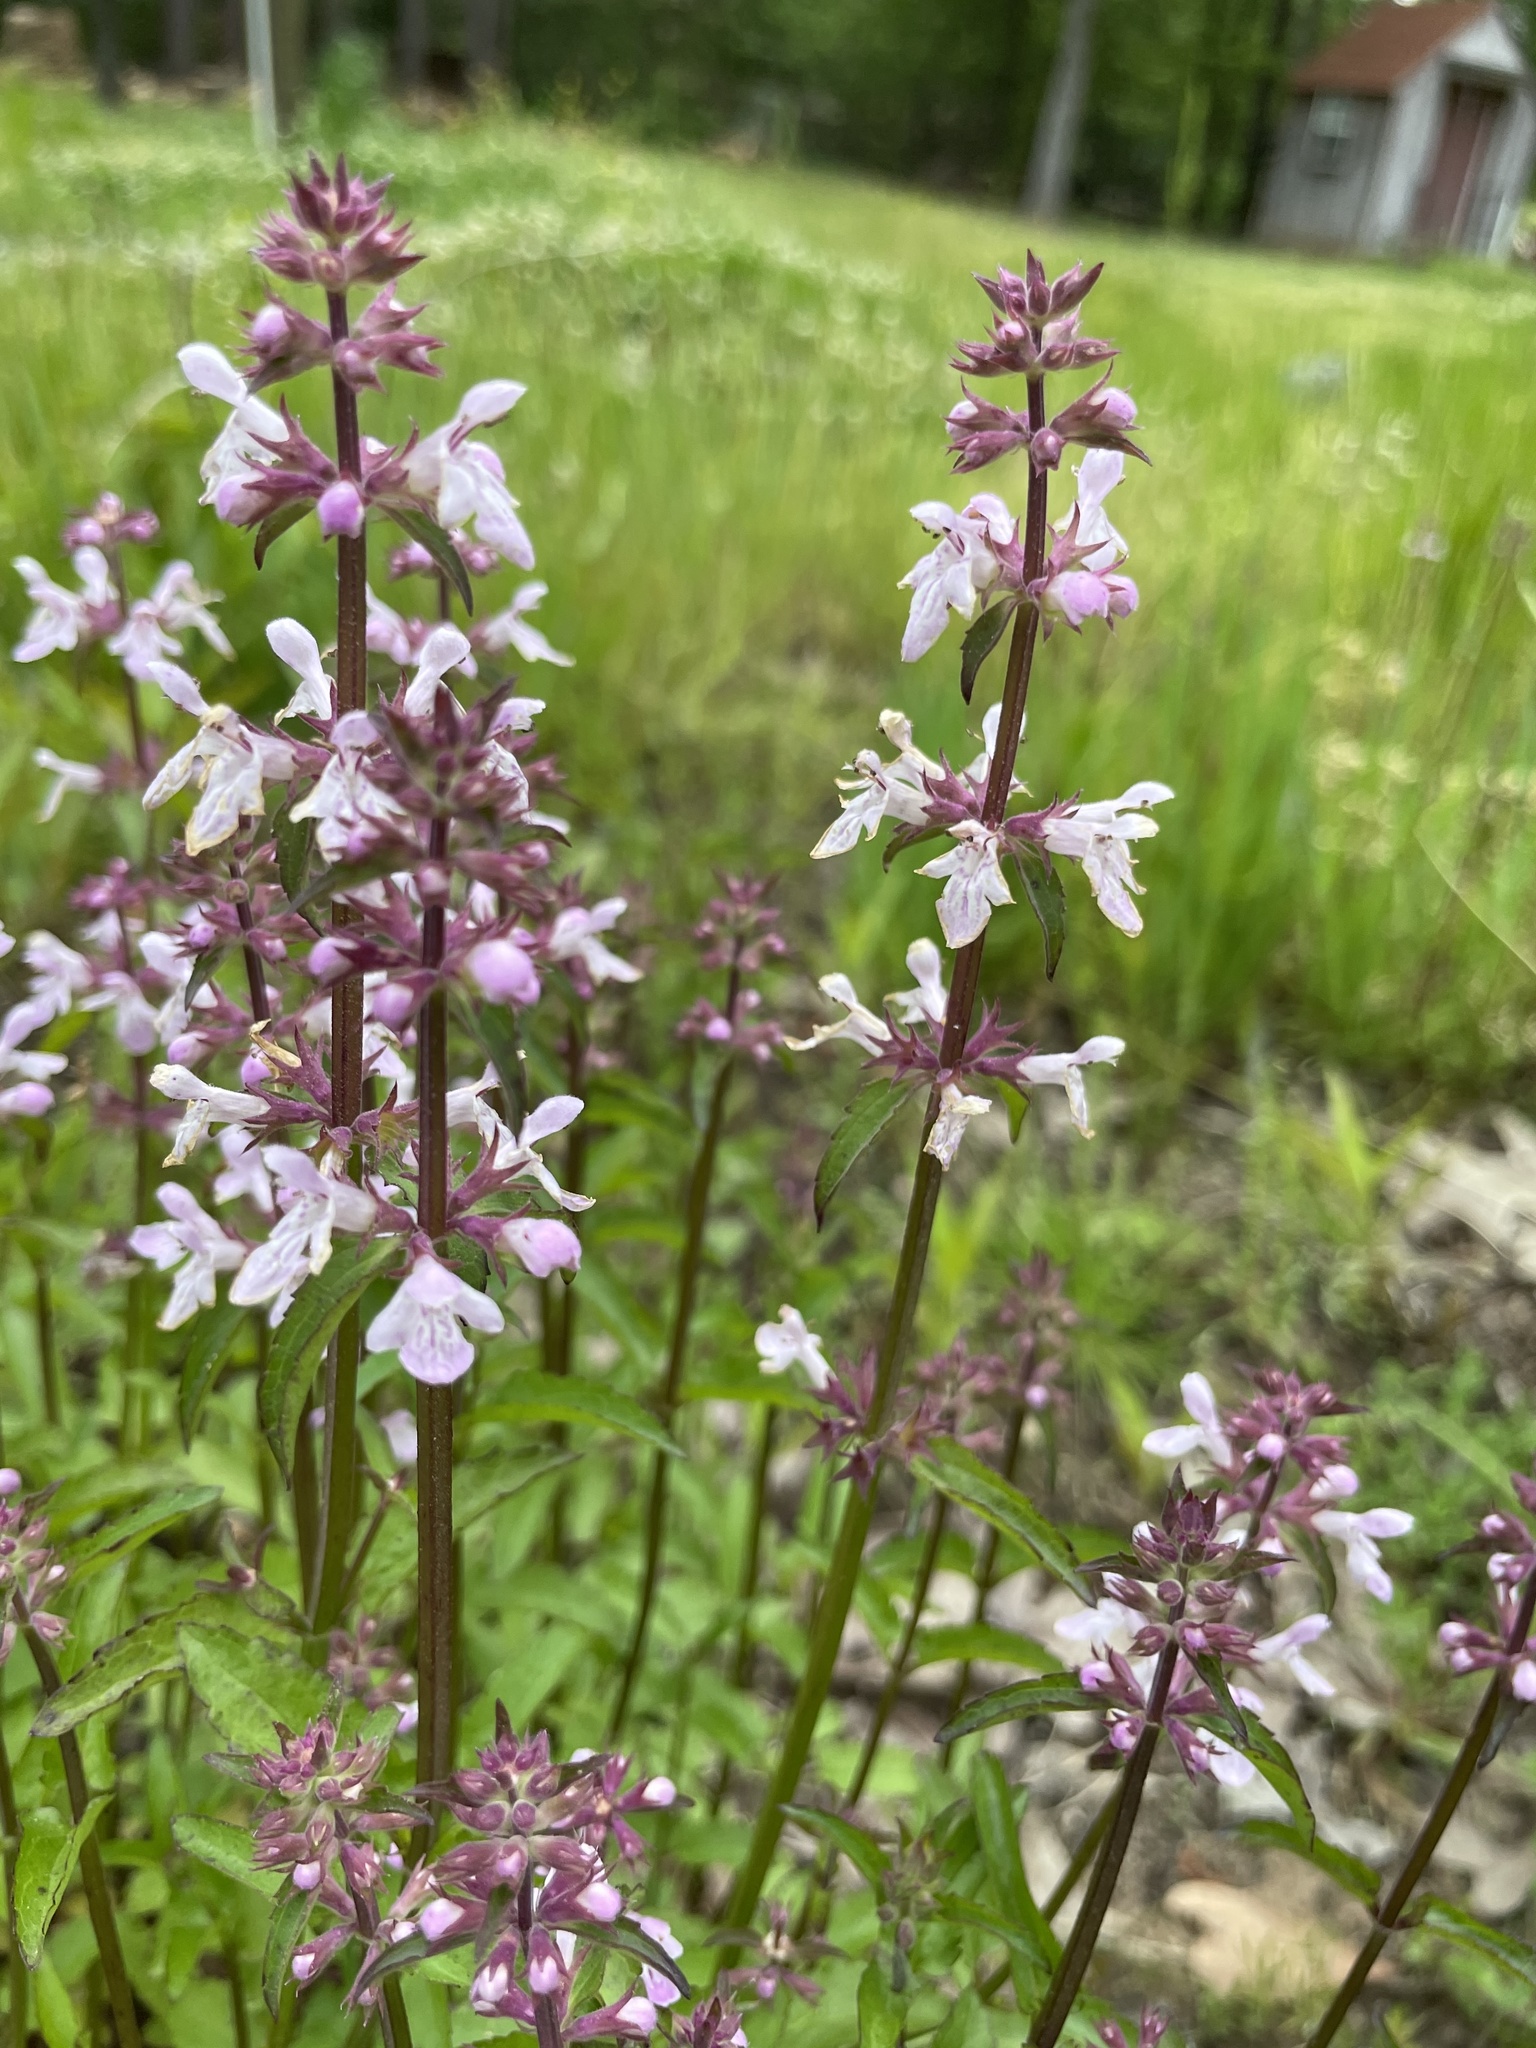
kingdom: Plantae
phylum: Tracheophyta
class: Magnoliopsida
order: Lamiales
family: Lamiaceae
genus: Stachys
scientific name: Stachys floridana
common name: Florida betony
